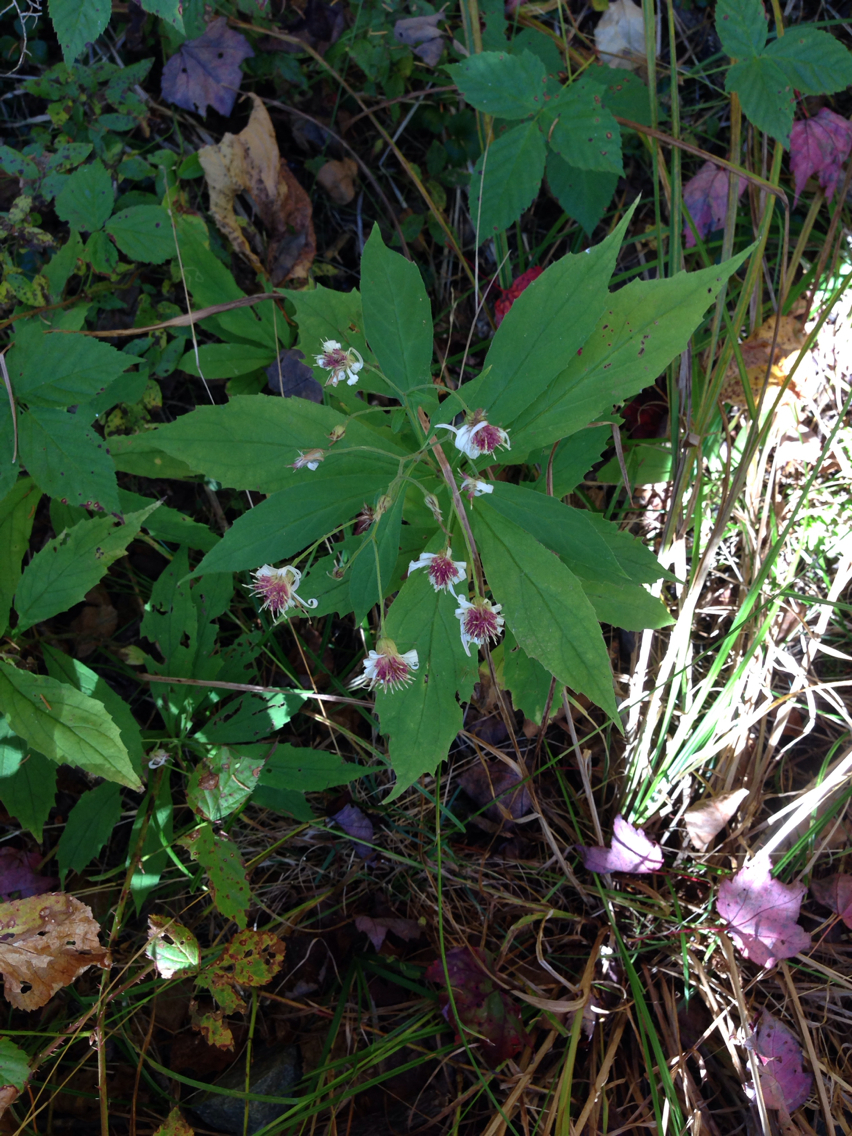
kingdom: Plantae
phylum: Tracheophyta
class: Magnoliopsida
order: Asterales
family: Asteraceae
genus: Oclemena
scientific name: Oclemena acuminata
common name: Mountain aster
